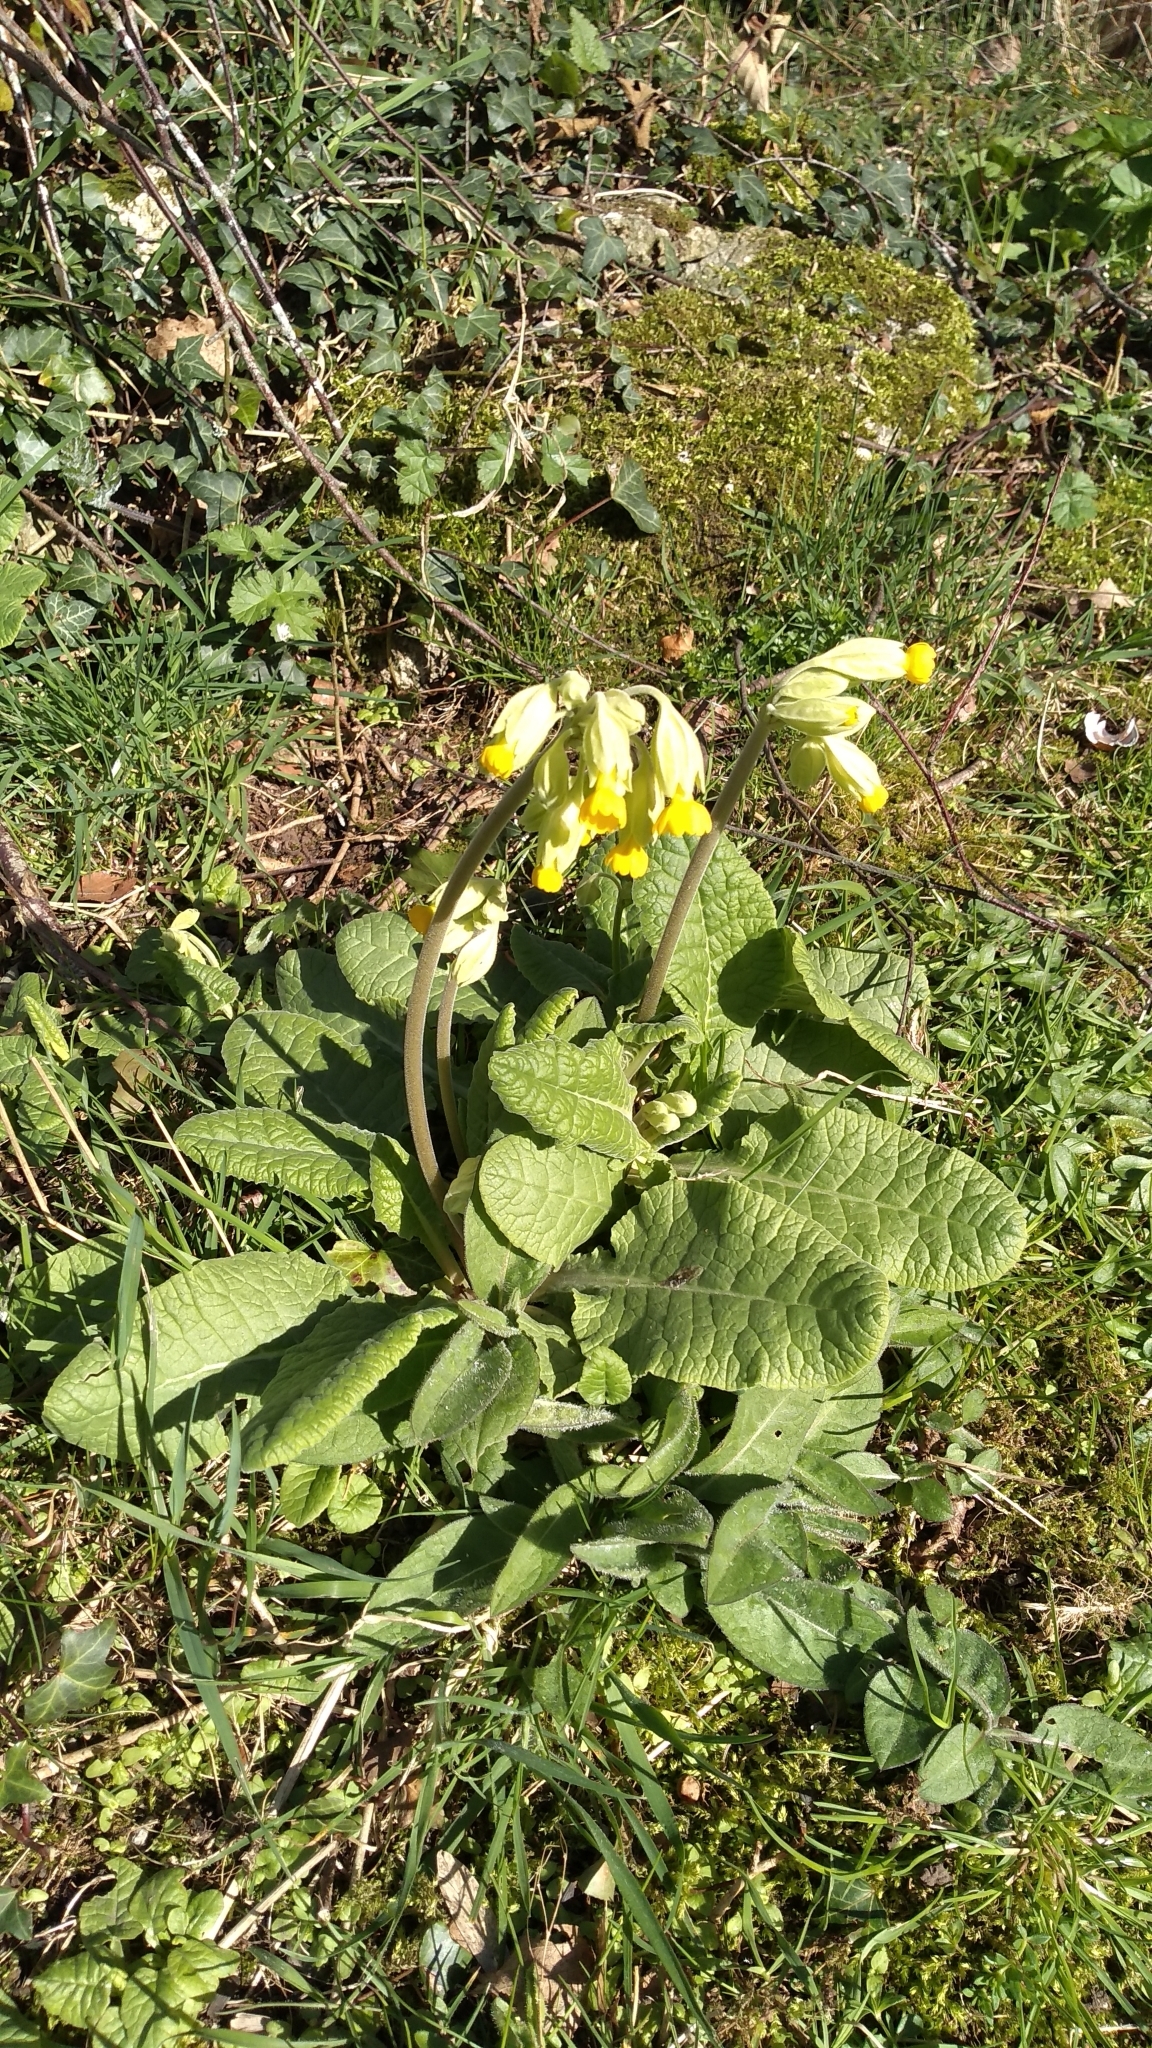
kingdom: Plantae
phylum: Tracheophyta
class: Magnoliopsida
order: Ericales
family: Primulaceae
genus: Primula
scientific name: Primula veris
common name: Cowslip
